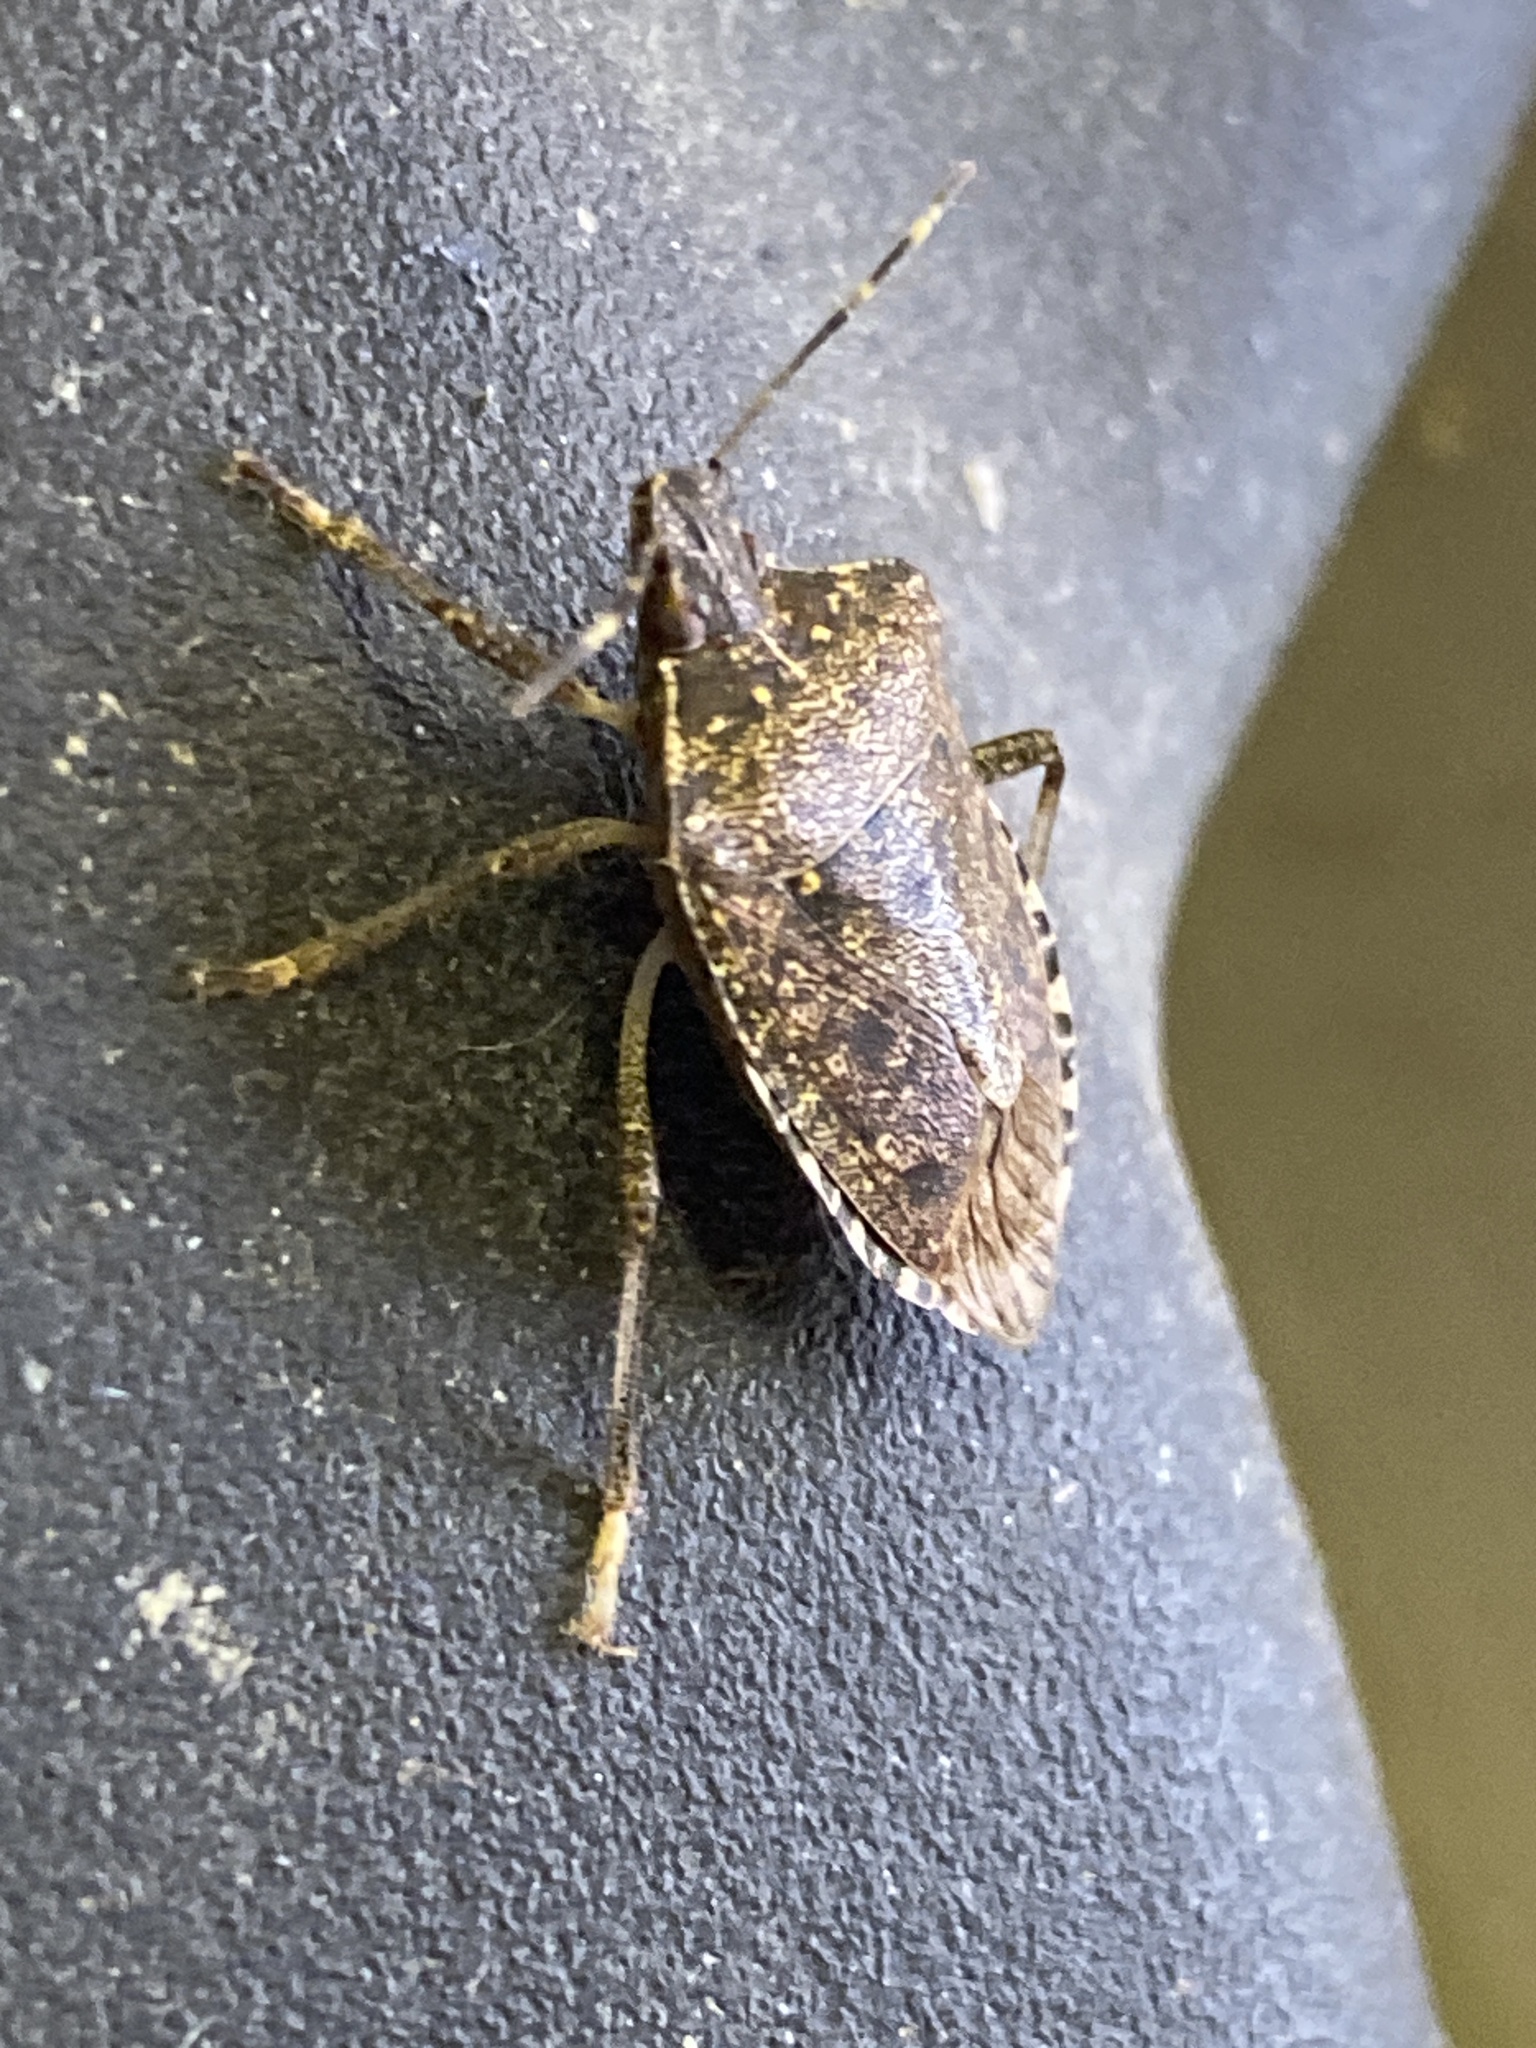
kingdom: Animalia
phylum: Arthropoda
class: Insecta
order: Hemiptera
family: Pentatomidae
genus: Halyomorpha
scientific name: Halyomorpha halys
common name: Brown marmorated stink bug
